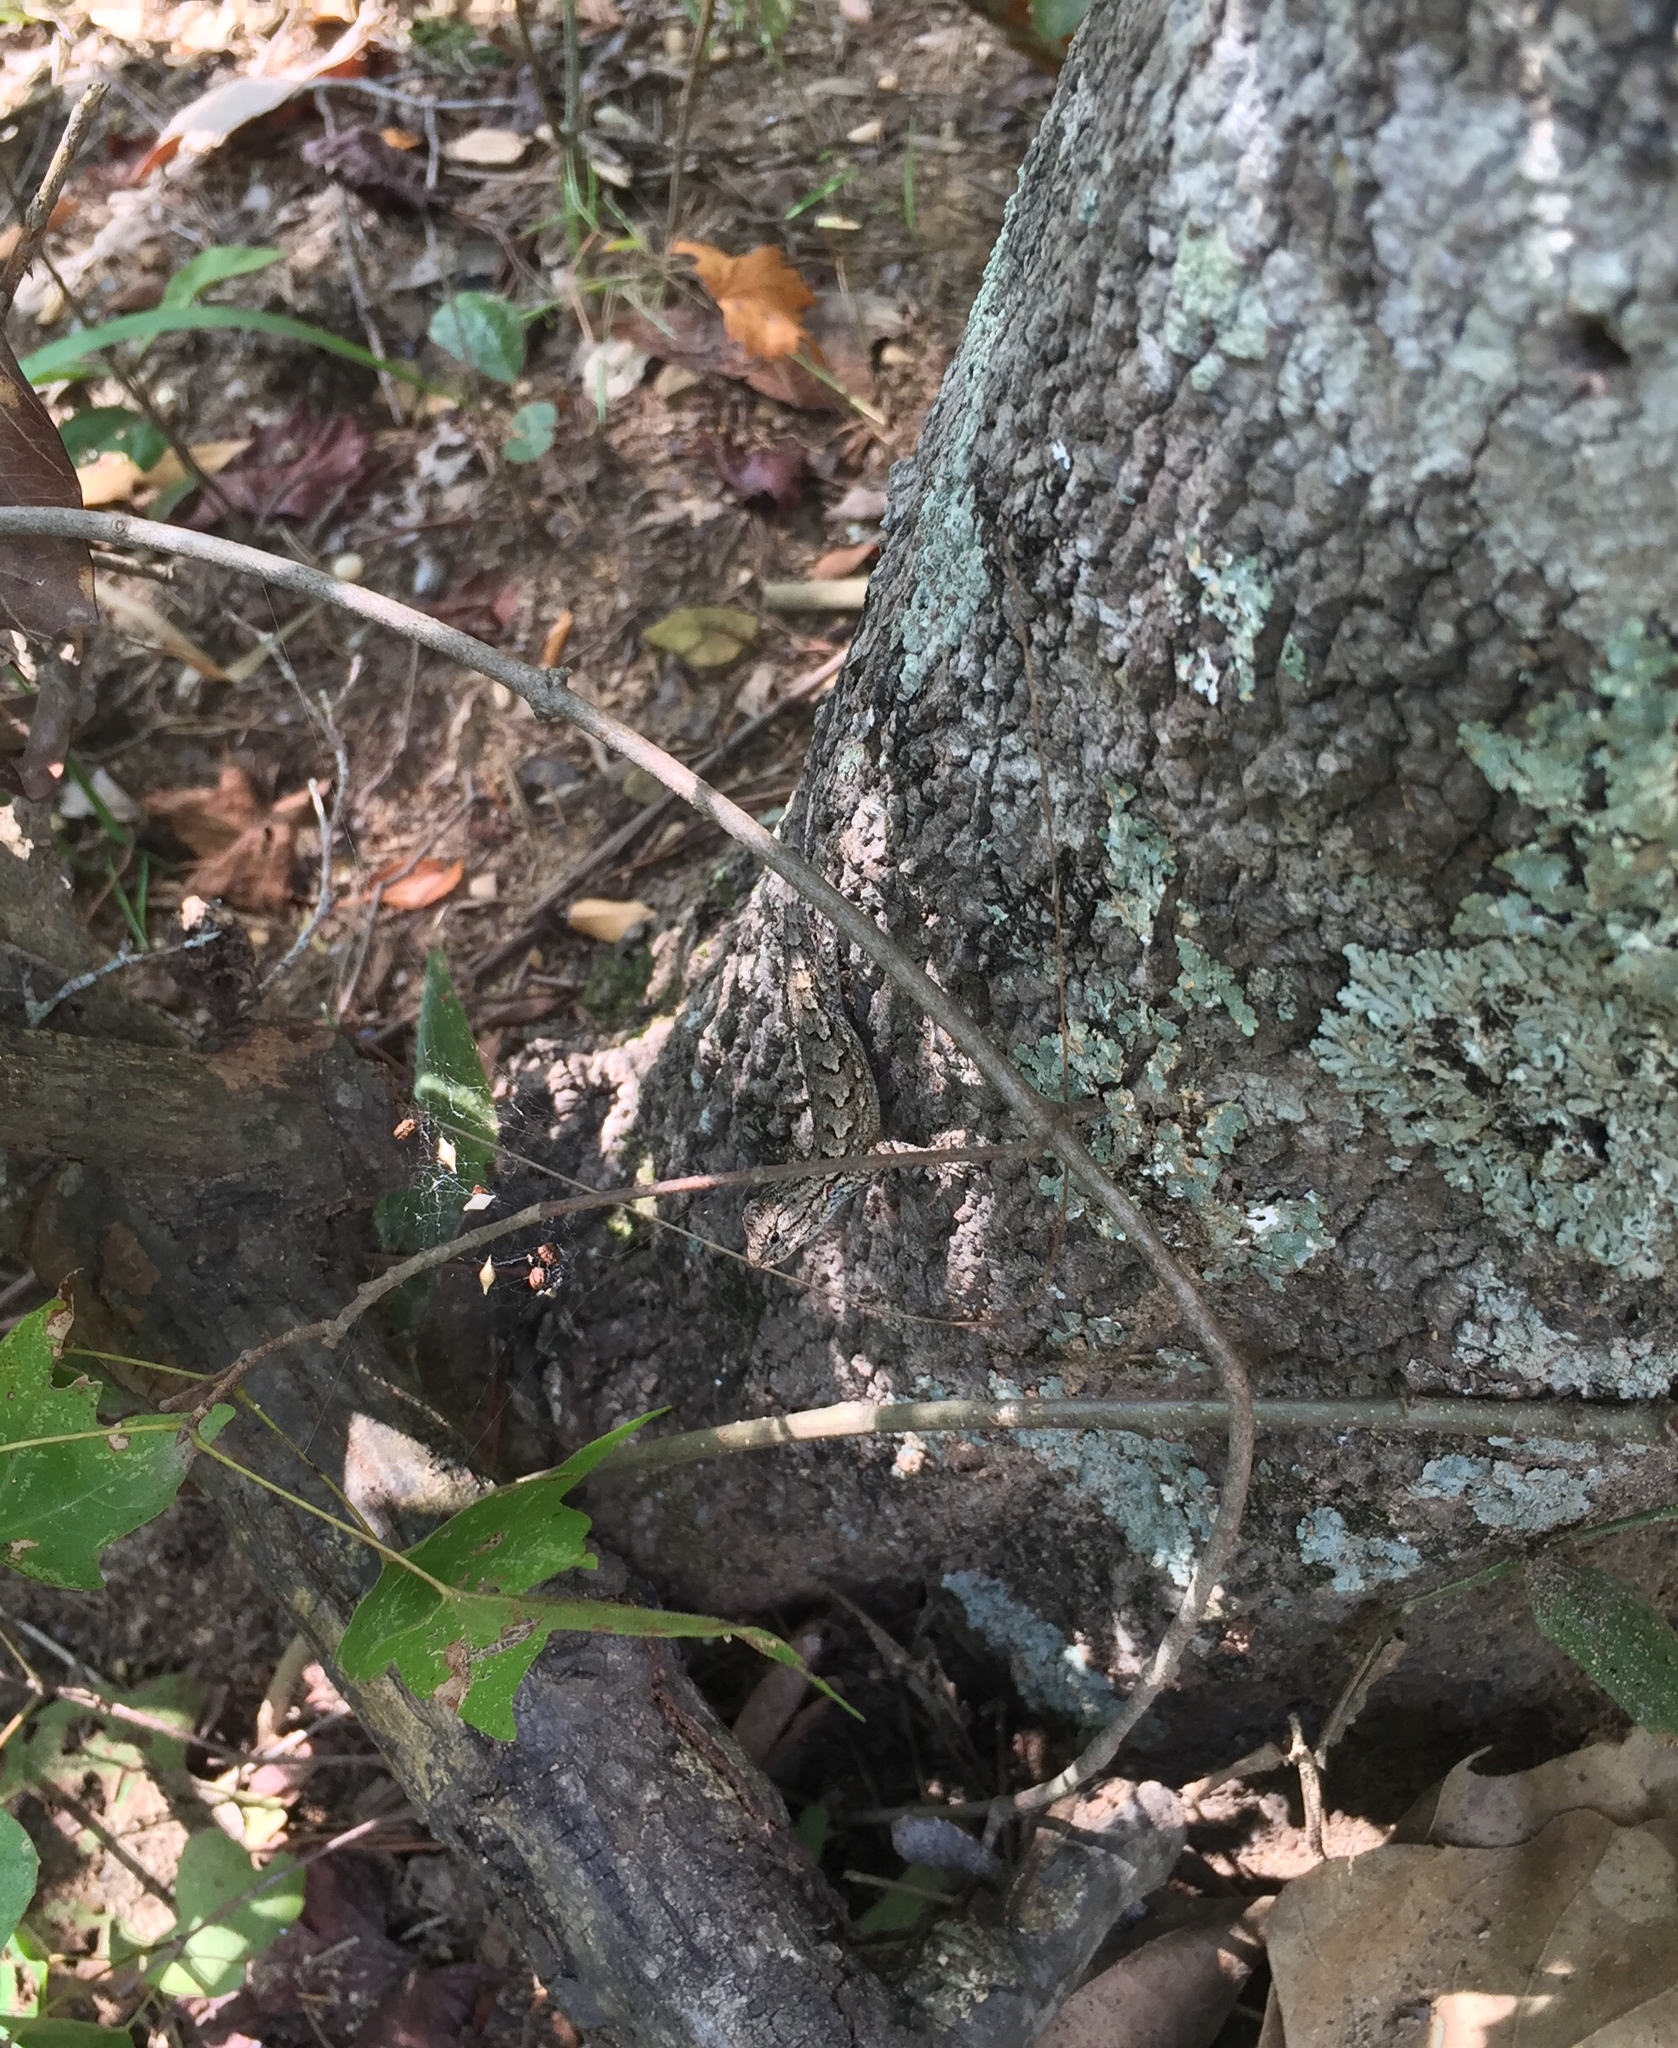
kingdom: Animalia
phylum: Chordata
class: Squamata
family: Phrynosomatidae
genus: Sceloporus
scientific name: Sceloporus undulatus
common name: Eastern fence lizard
